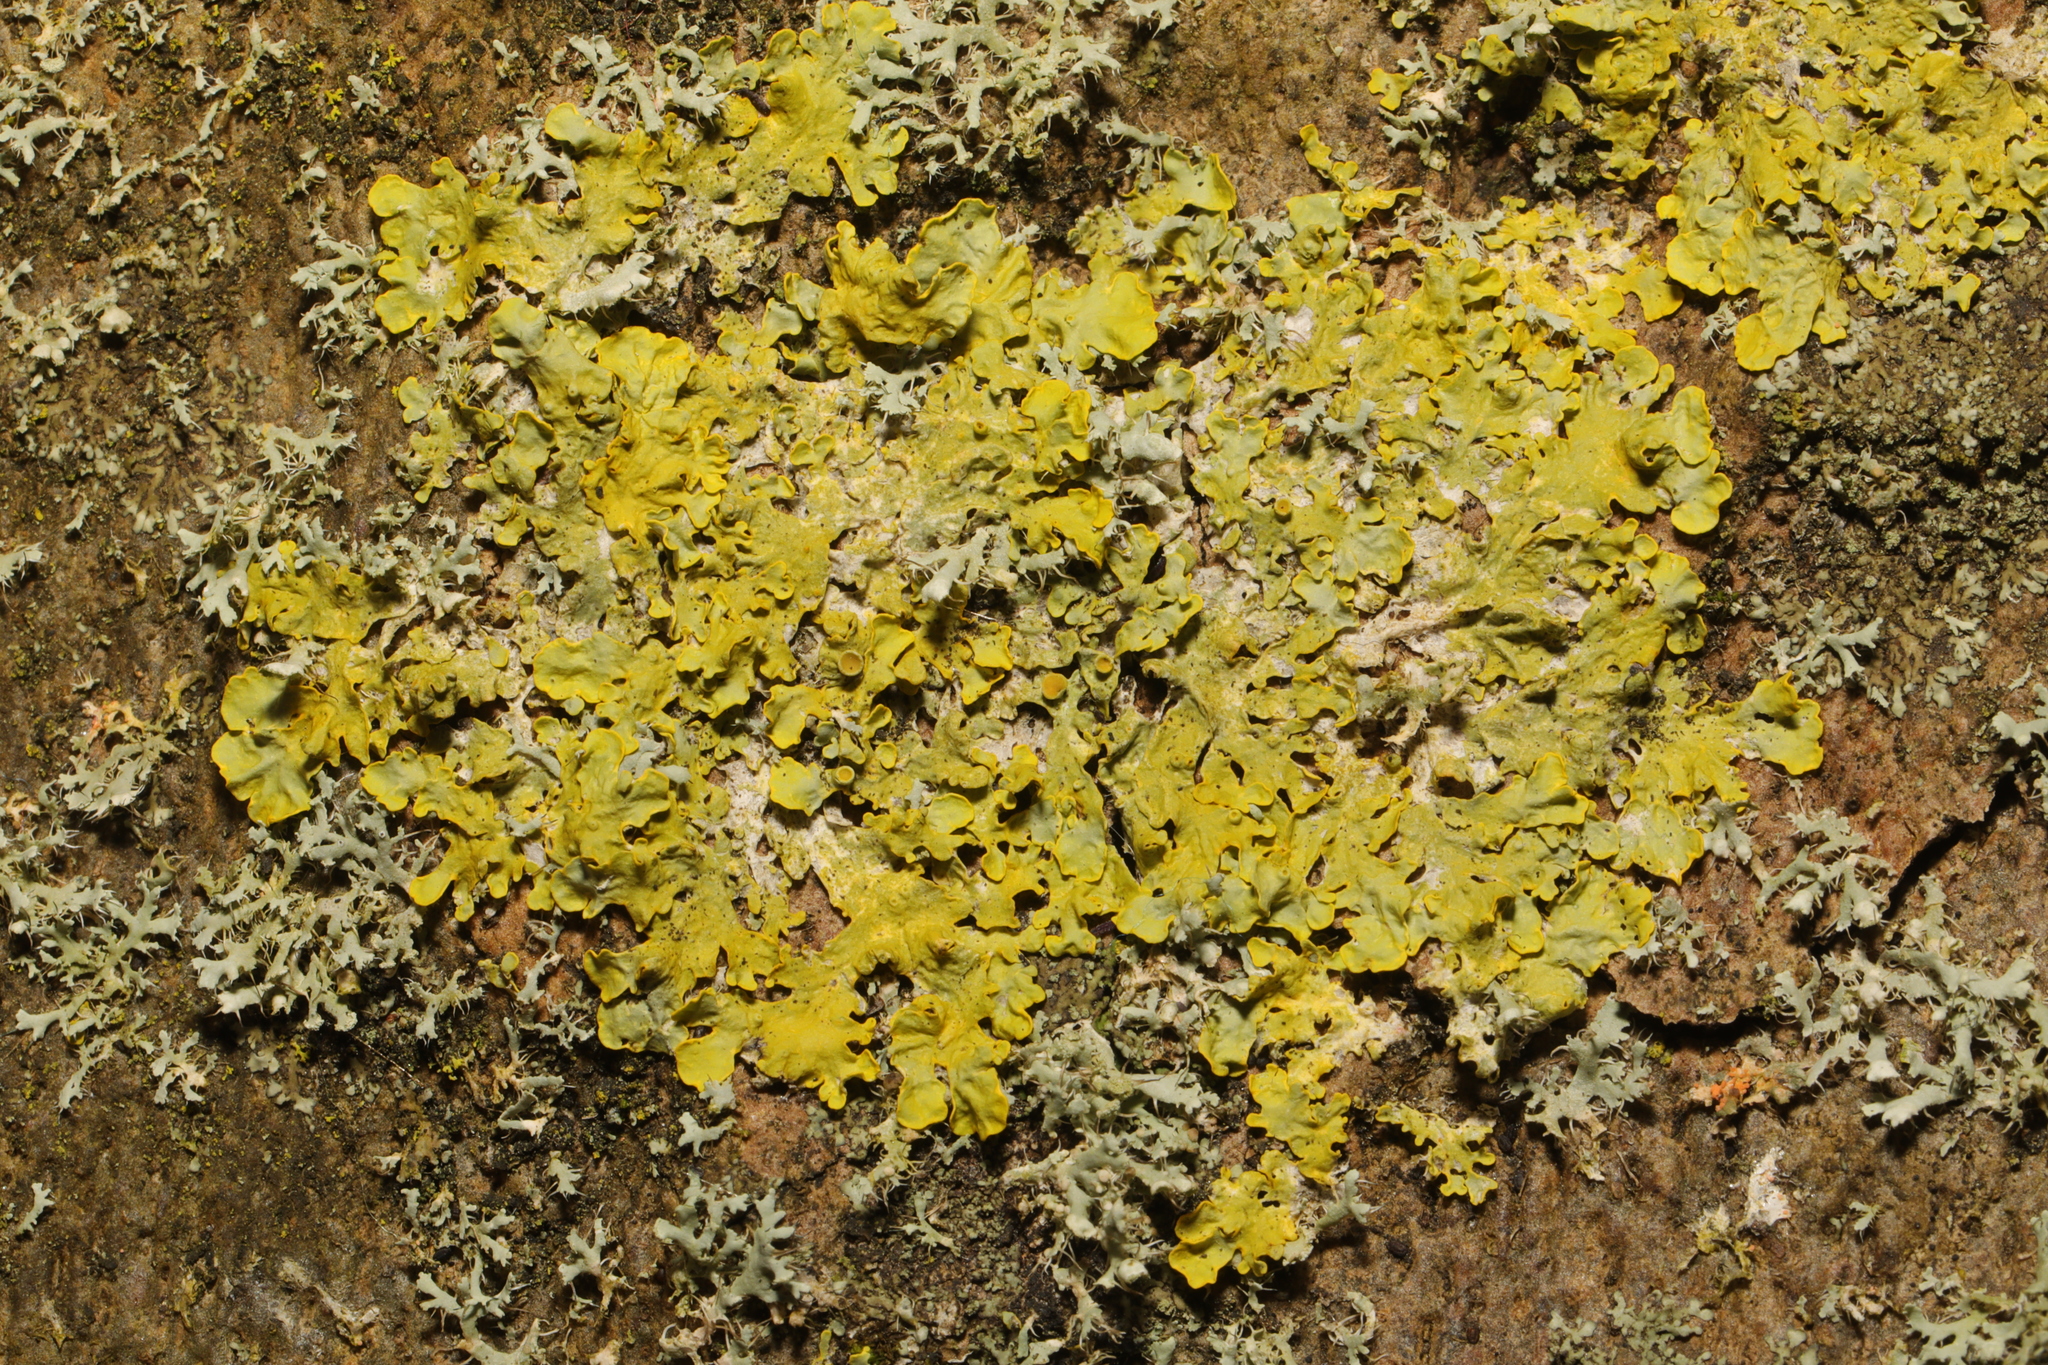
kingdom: Fungi
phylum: Ascomycota
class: Lecanoromycetes
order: Teloschistales
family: Teloschistaceae
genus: Xanthoria
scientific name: Xanthoria parietina
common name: Common orange lichen
